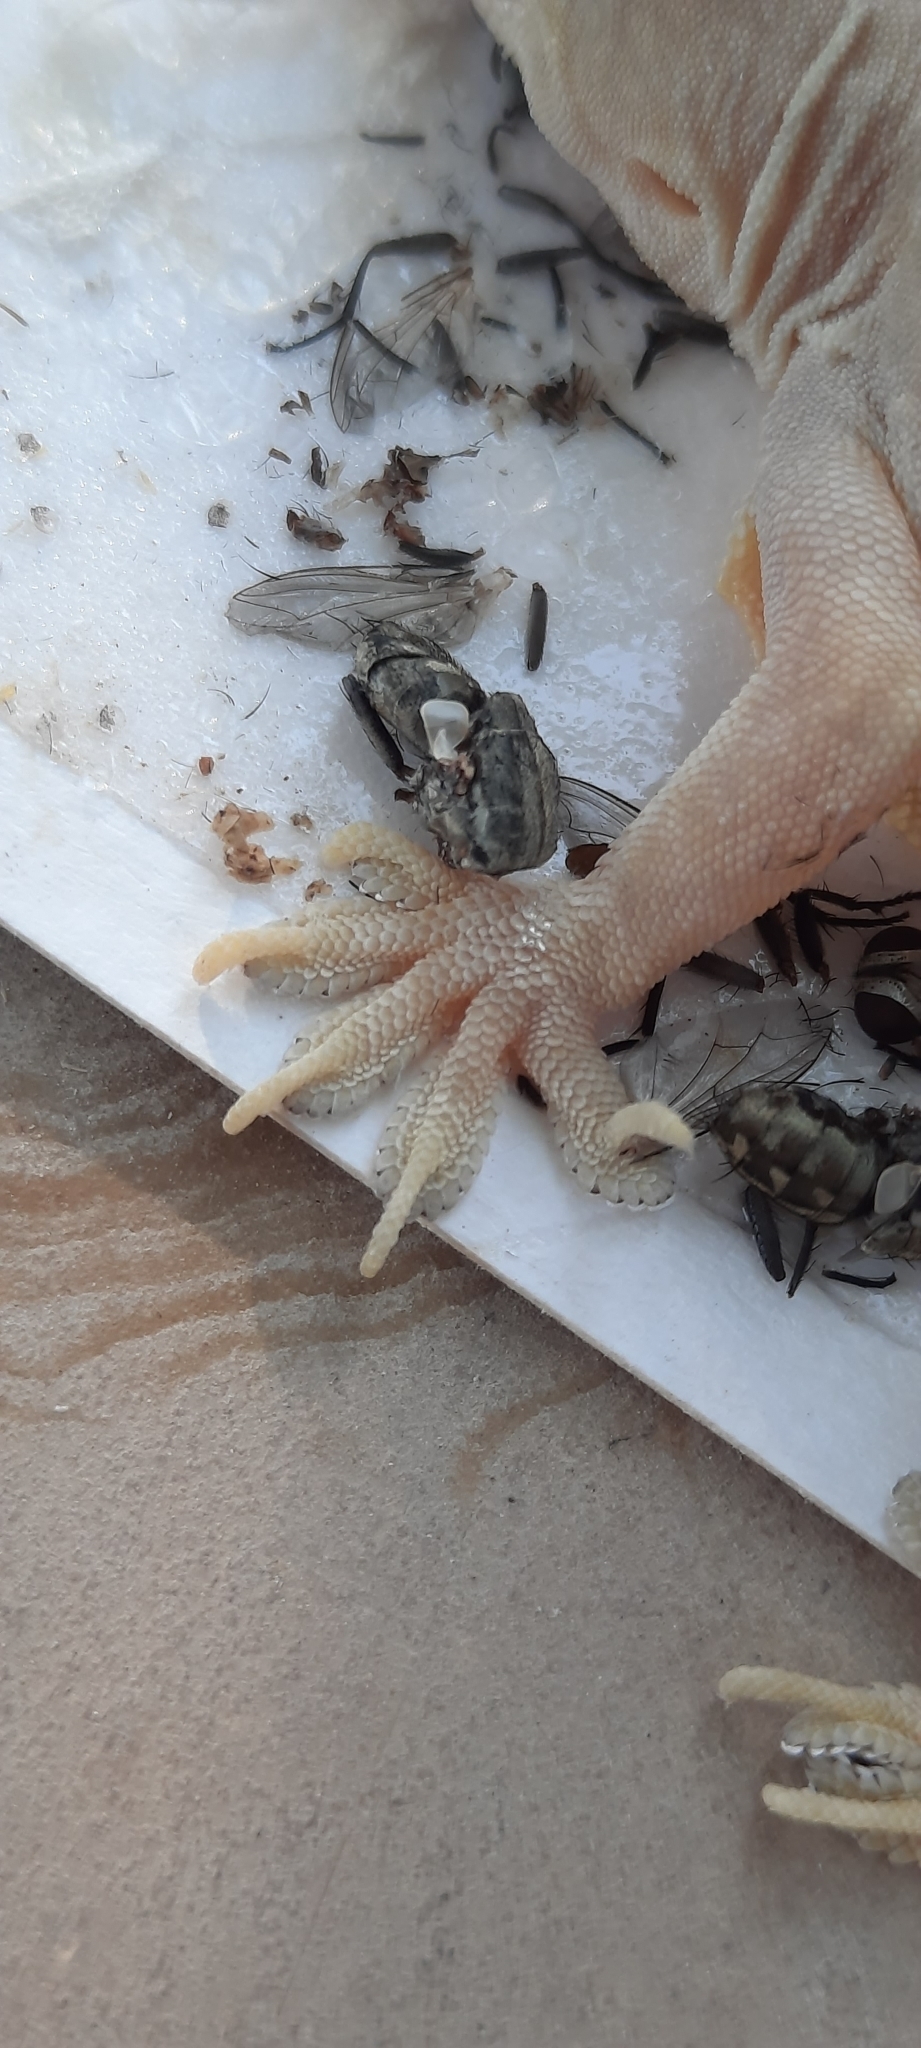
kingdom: Animalia
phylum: Chordata
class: Squamata
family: Gekkonidae
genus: Hemidactylus
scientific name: Hemidactylus flaviviridis
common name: Northern house gecko
